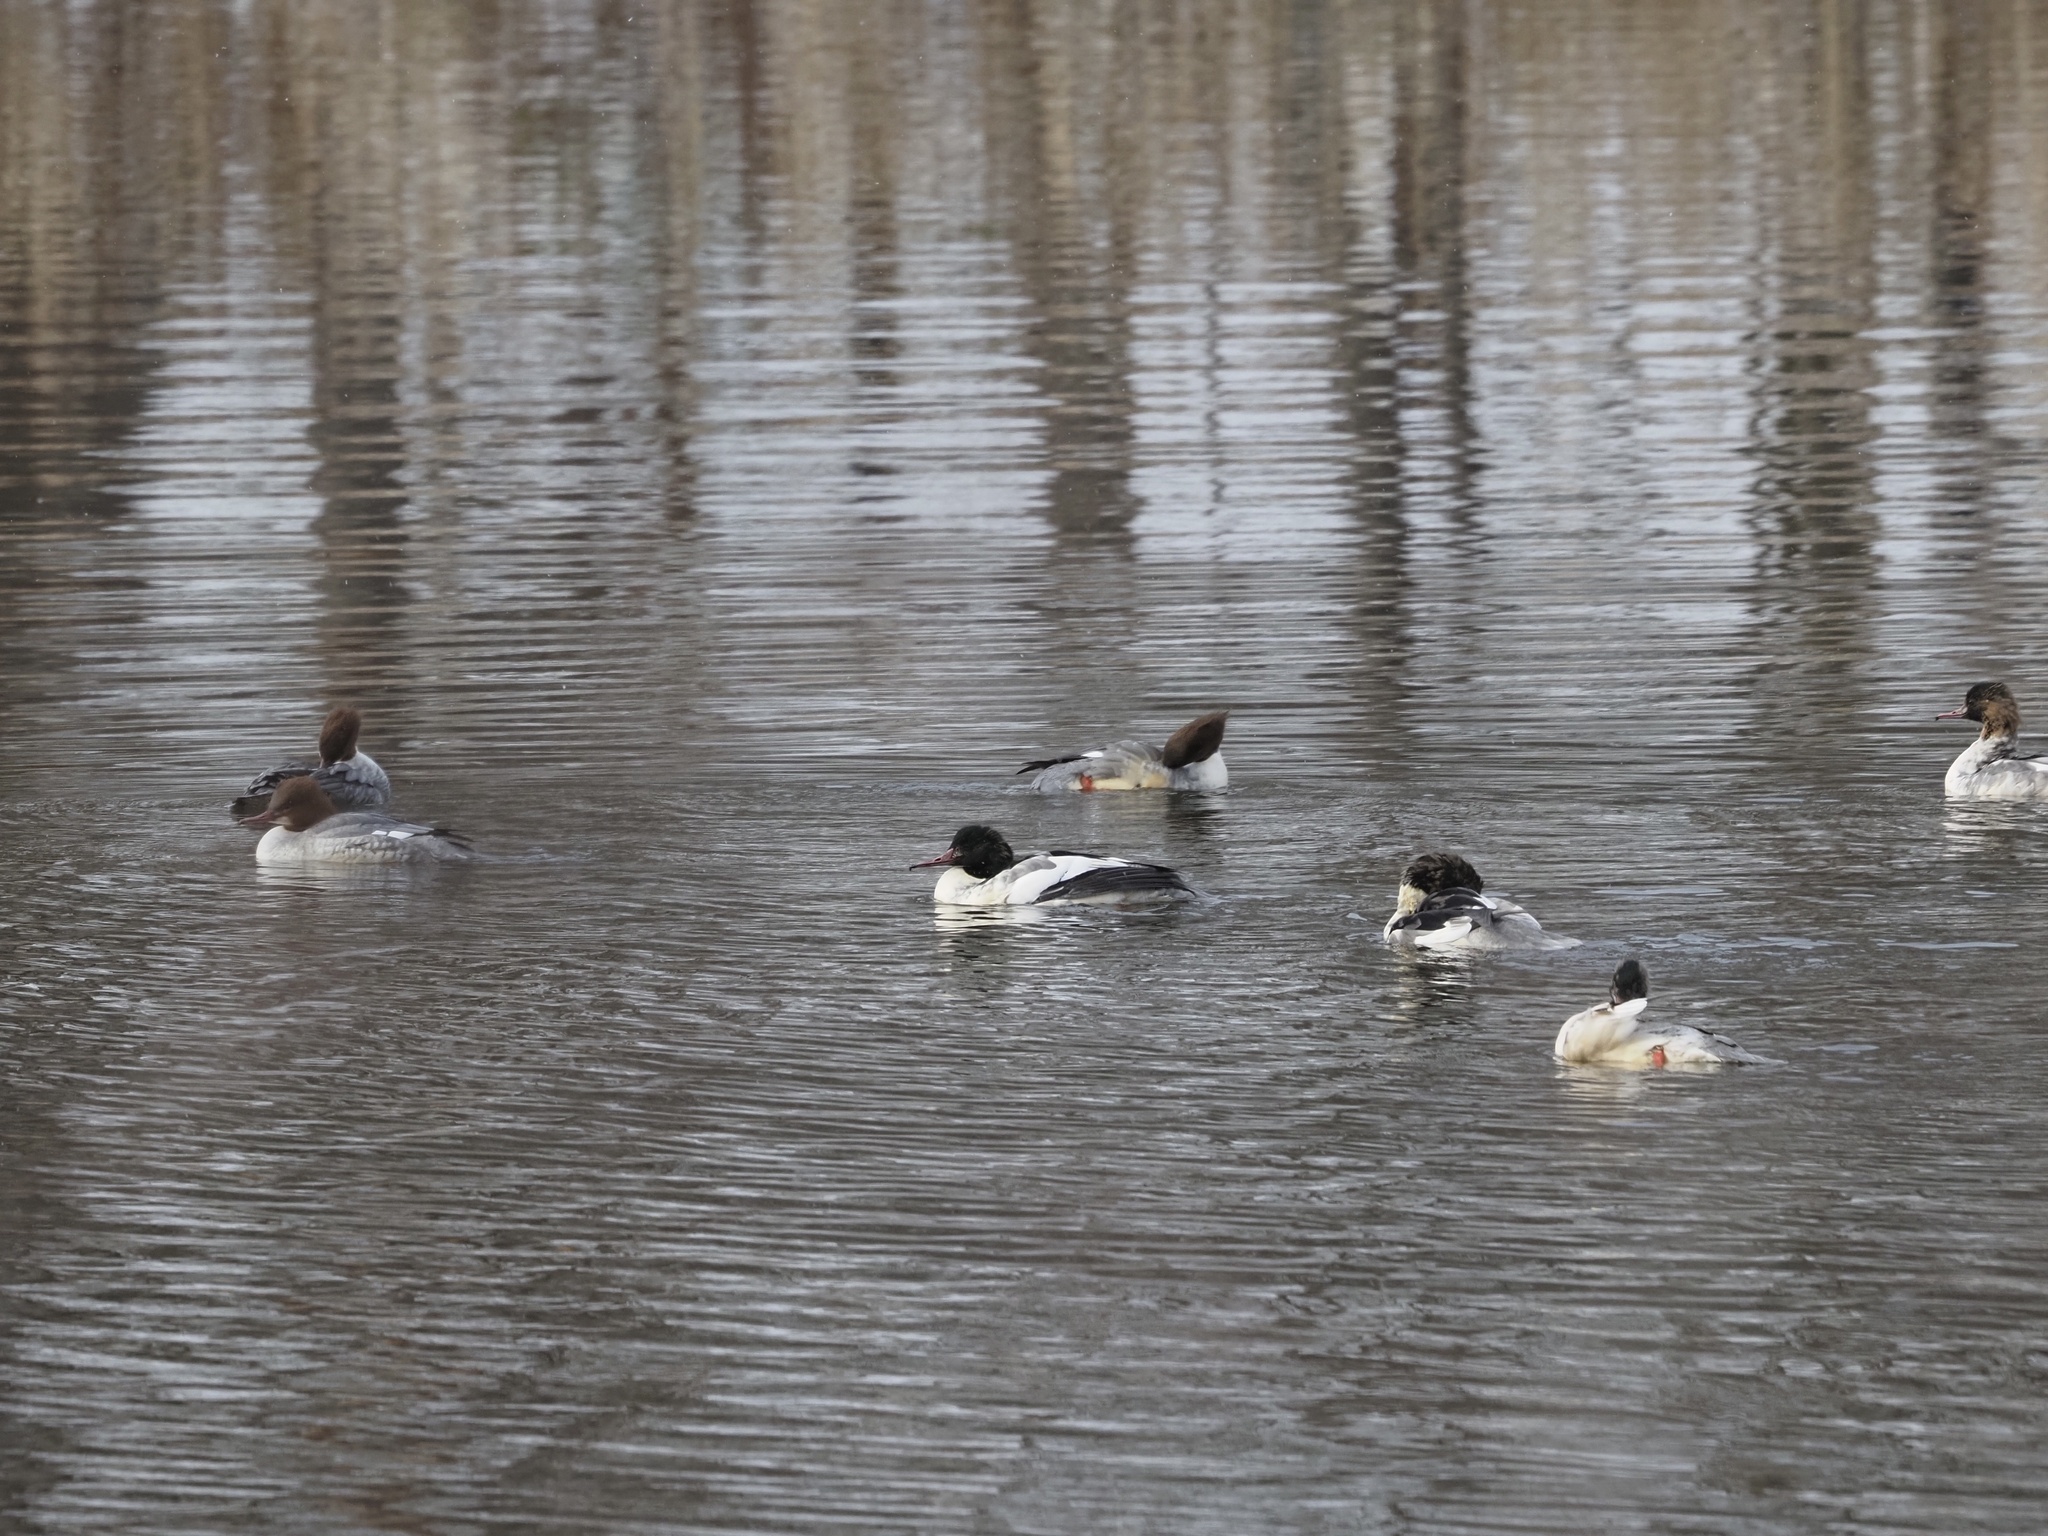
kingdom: Animalia
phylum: Chordata
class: Aves
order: Anseriformes
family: Anatidae
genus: Mergus
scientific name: Mergus merganser
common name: Common merganser
